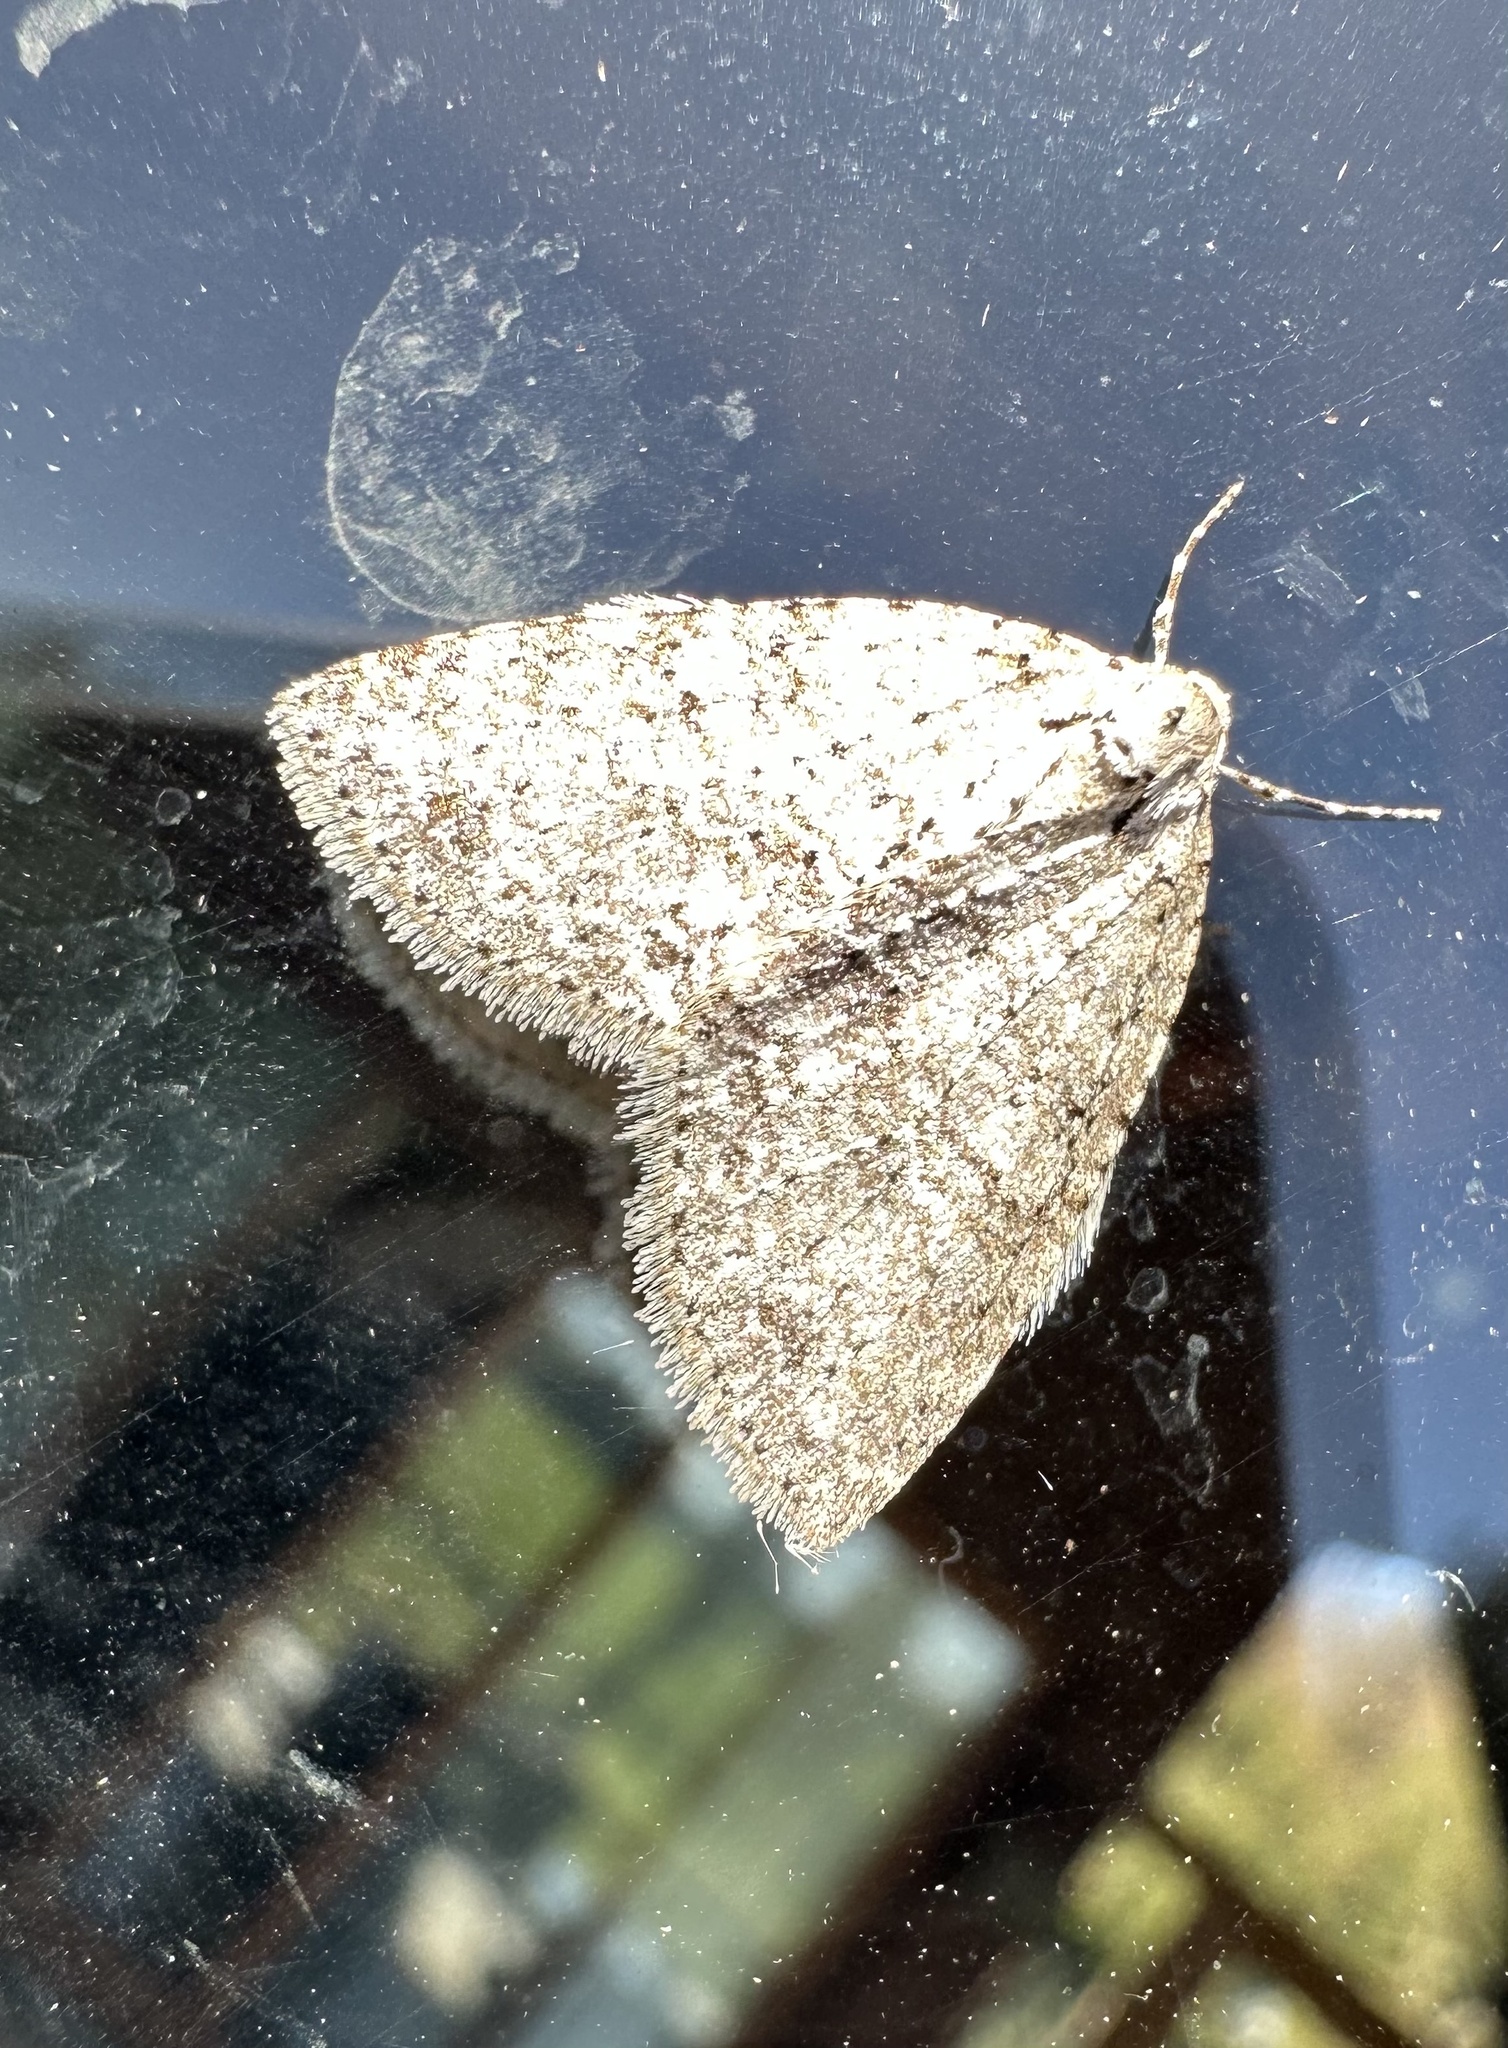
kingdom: Animalia
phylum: Arthropoda
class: Insecta
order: Lepidoptera
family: Geometridae
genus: Hoplosauris
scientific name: Hoplosauris
